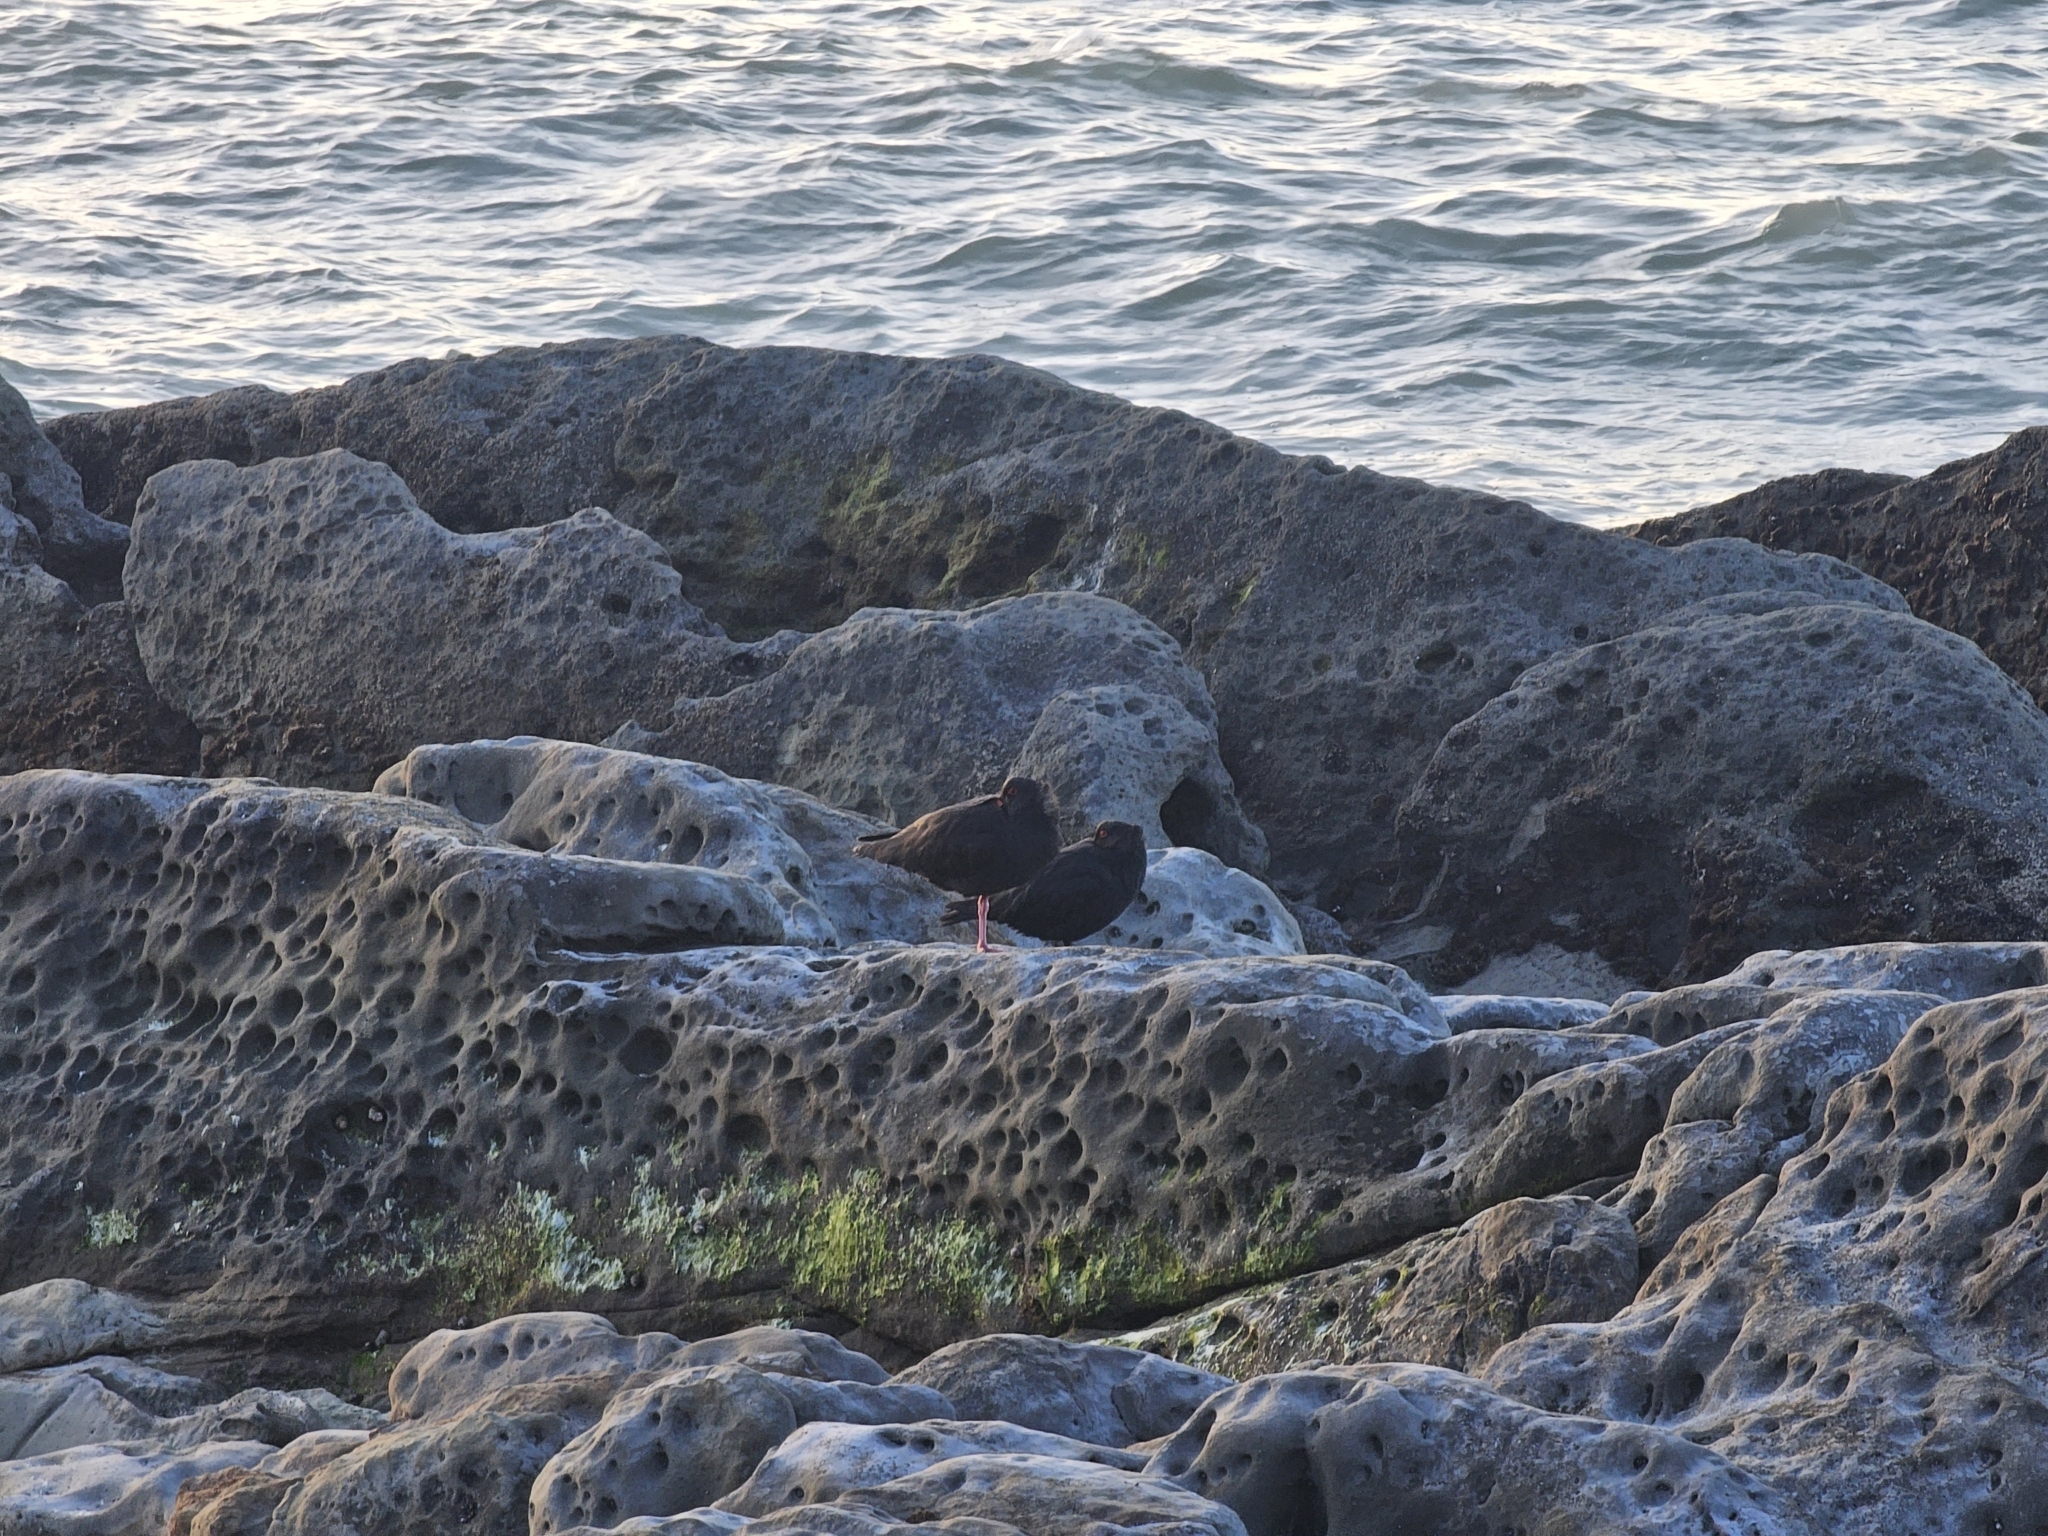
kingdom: Animalia
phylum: Chordata
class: Aves
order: Charadriiformes
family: Haematopodidae
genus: Haematopus
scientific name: Haematopus unicolor
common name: Variable oystercatcher
